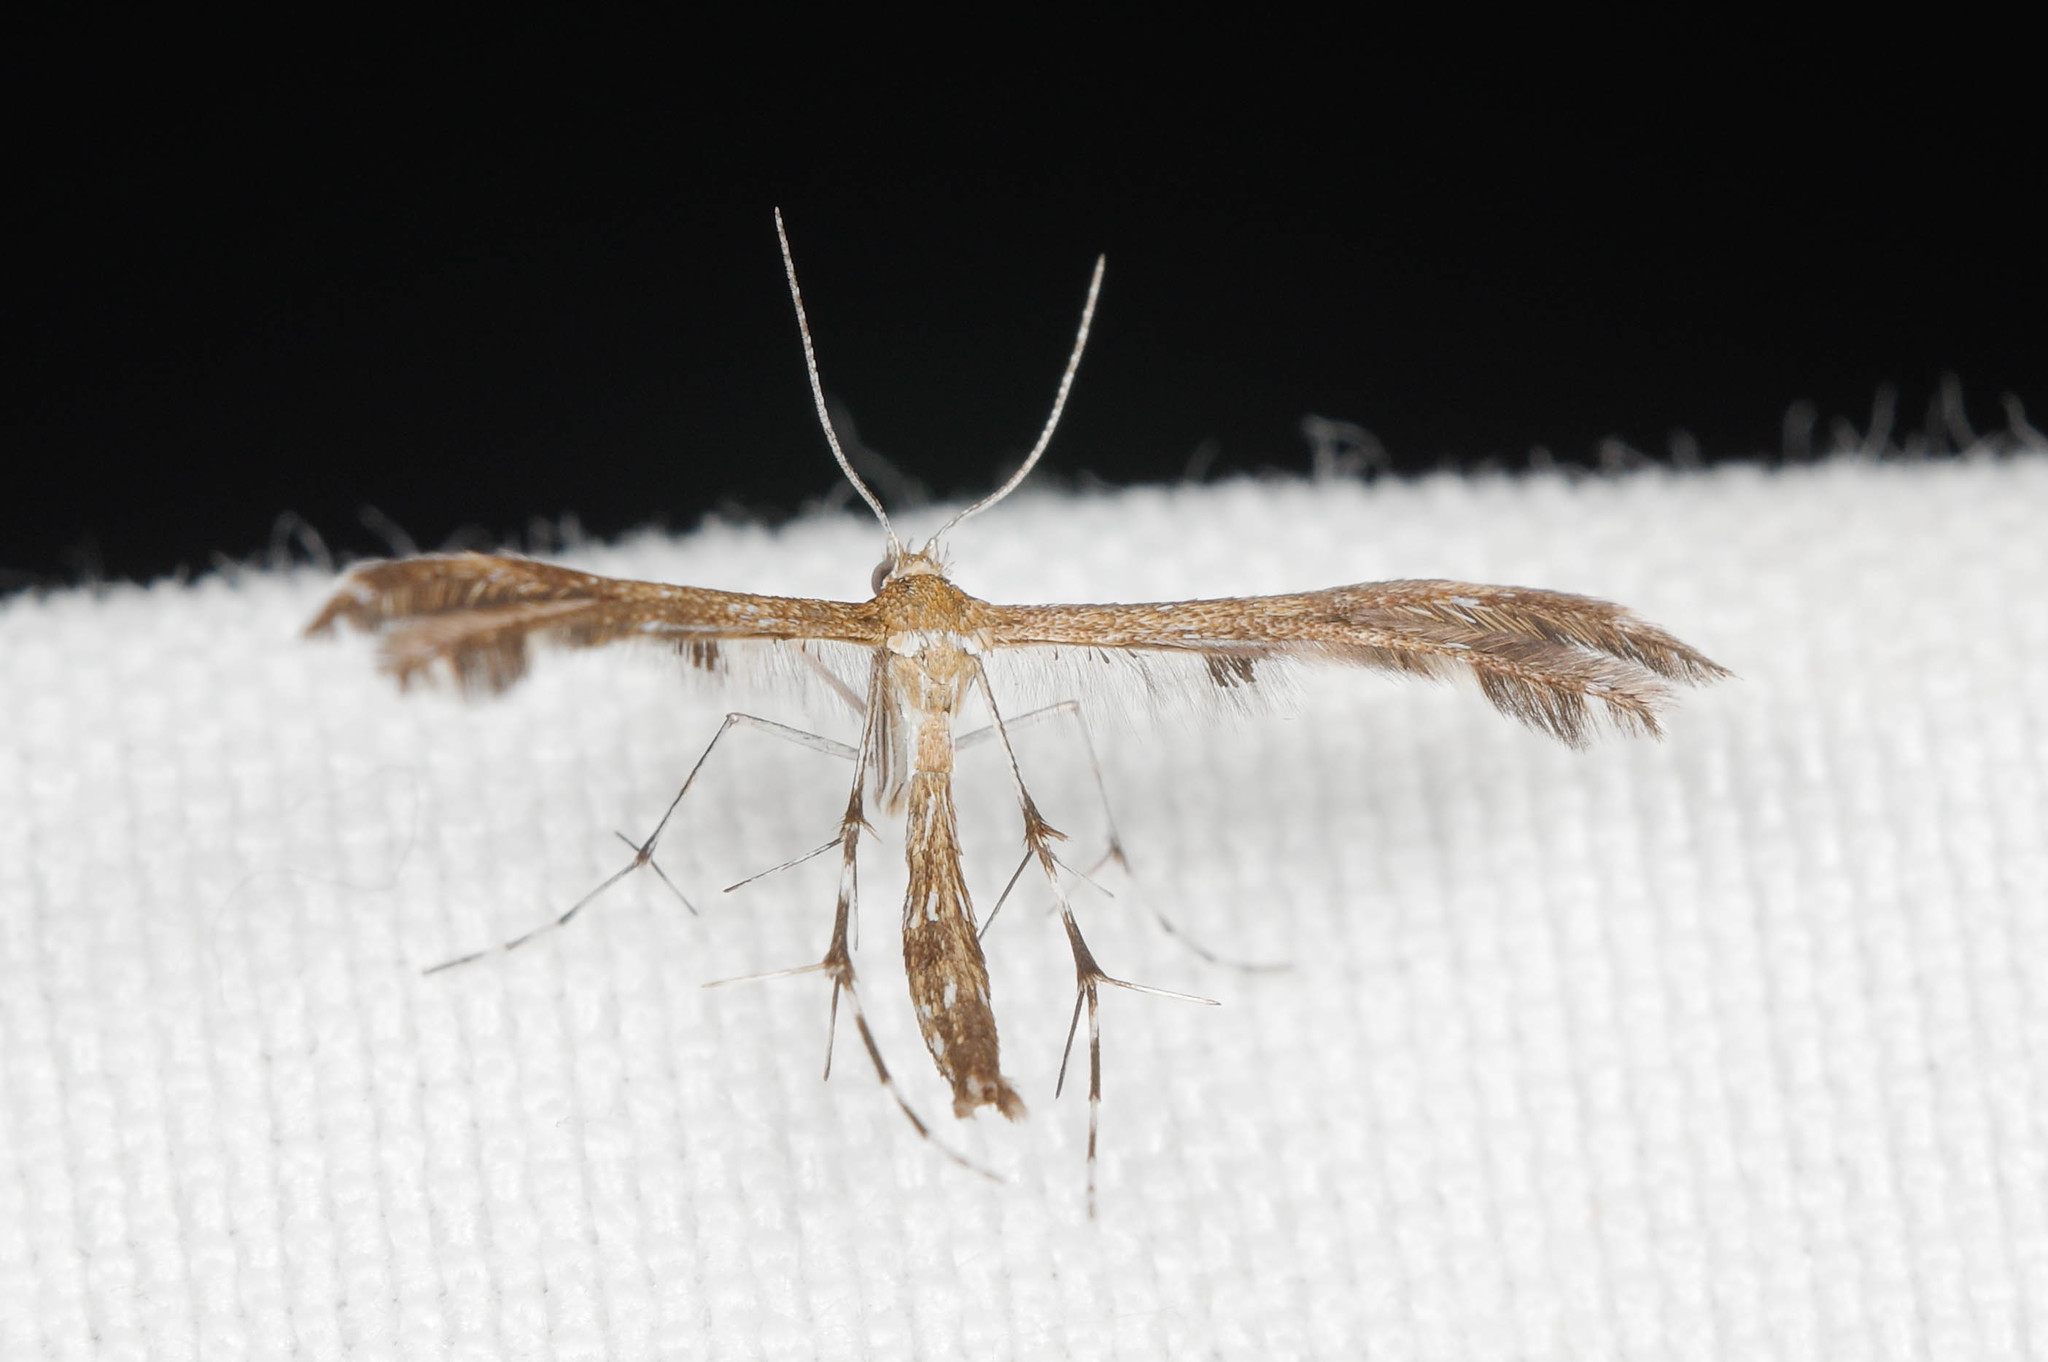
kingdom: Animalia
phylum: Arthropoda
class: Insecta
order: Lepidoptera
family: Pterophoridae
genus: Dejongia
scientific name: Dejongia lobidactylus
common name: Lobed plume moth
